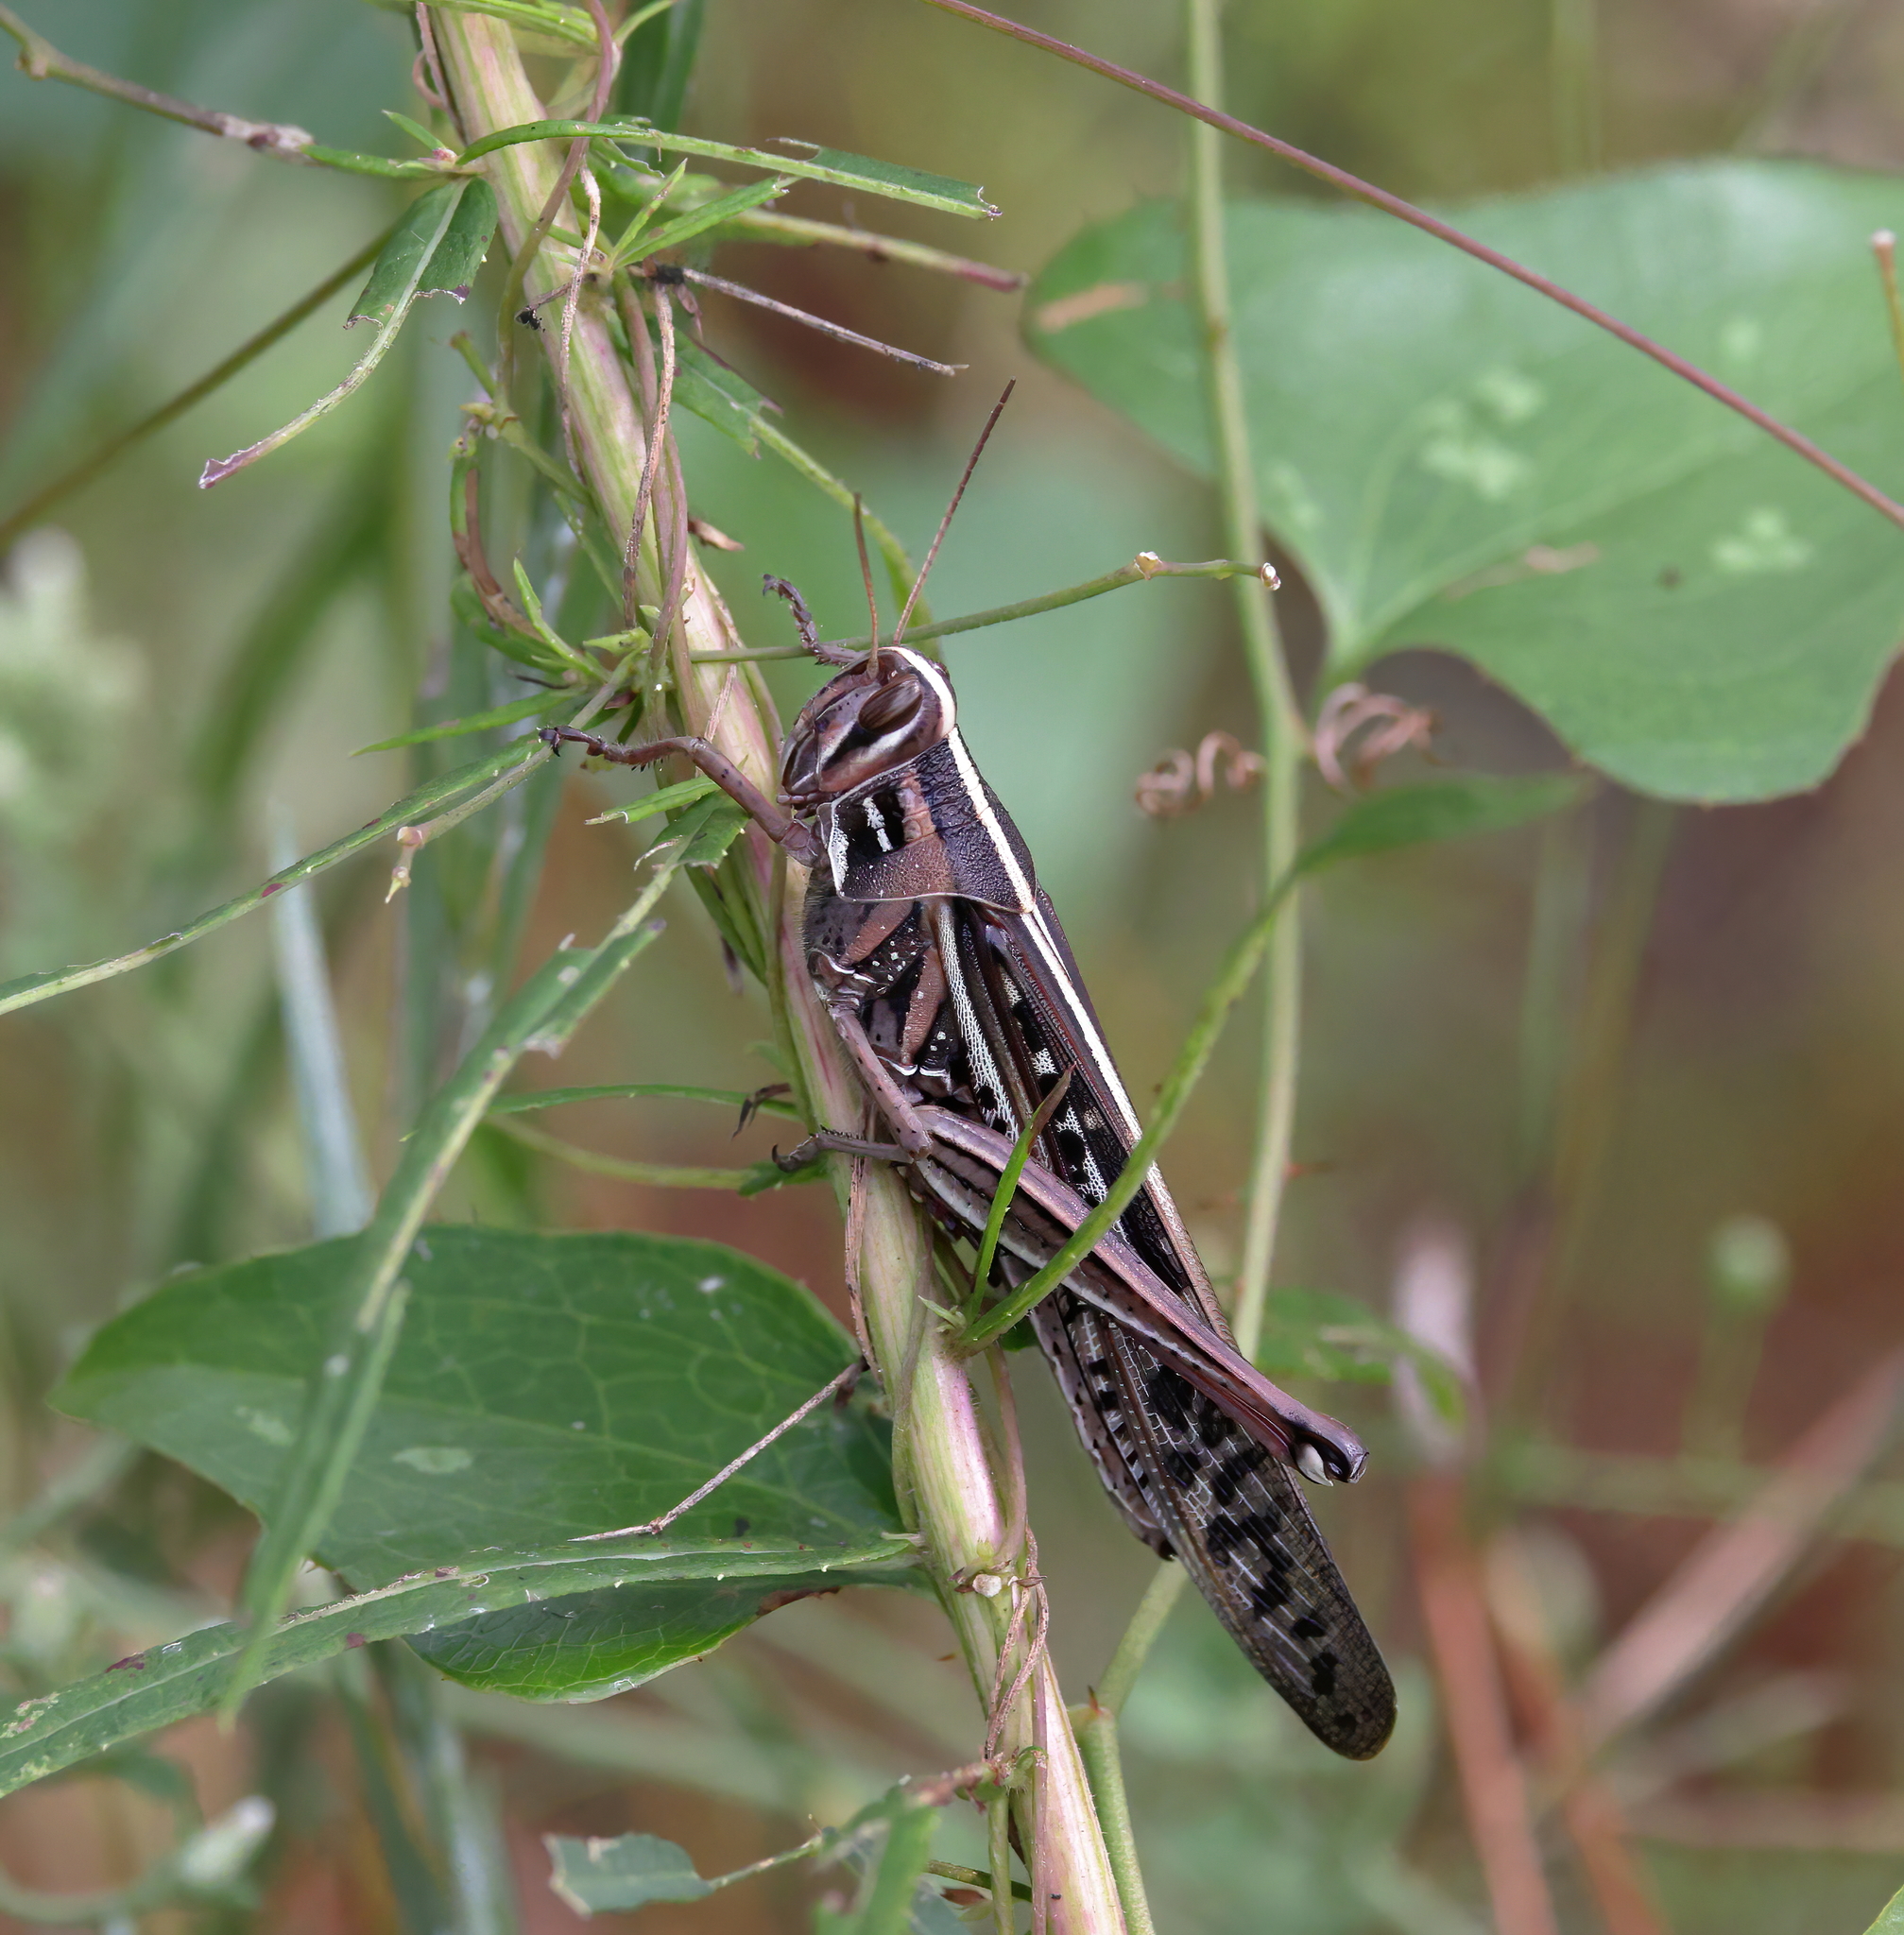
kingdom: Animalia
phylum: Arthropoda
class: Insecta
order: Orthoptera
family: Acrididae
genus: Schistocerca
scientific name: Schistocerca americana
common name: American bird locust
